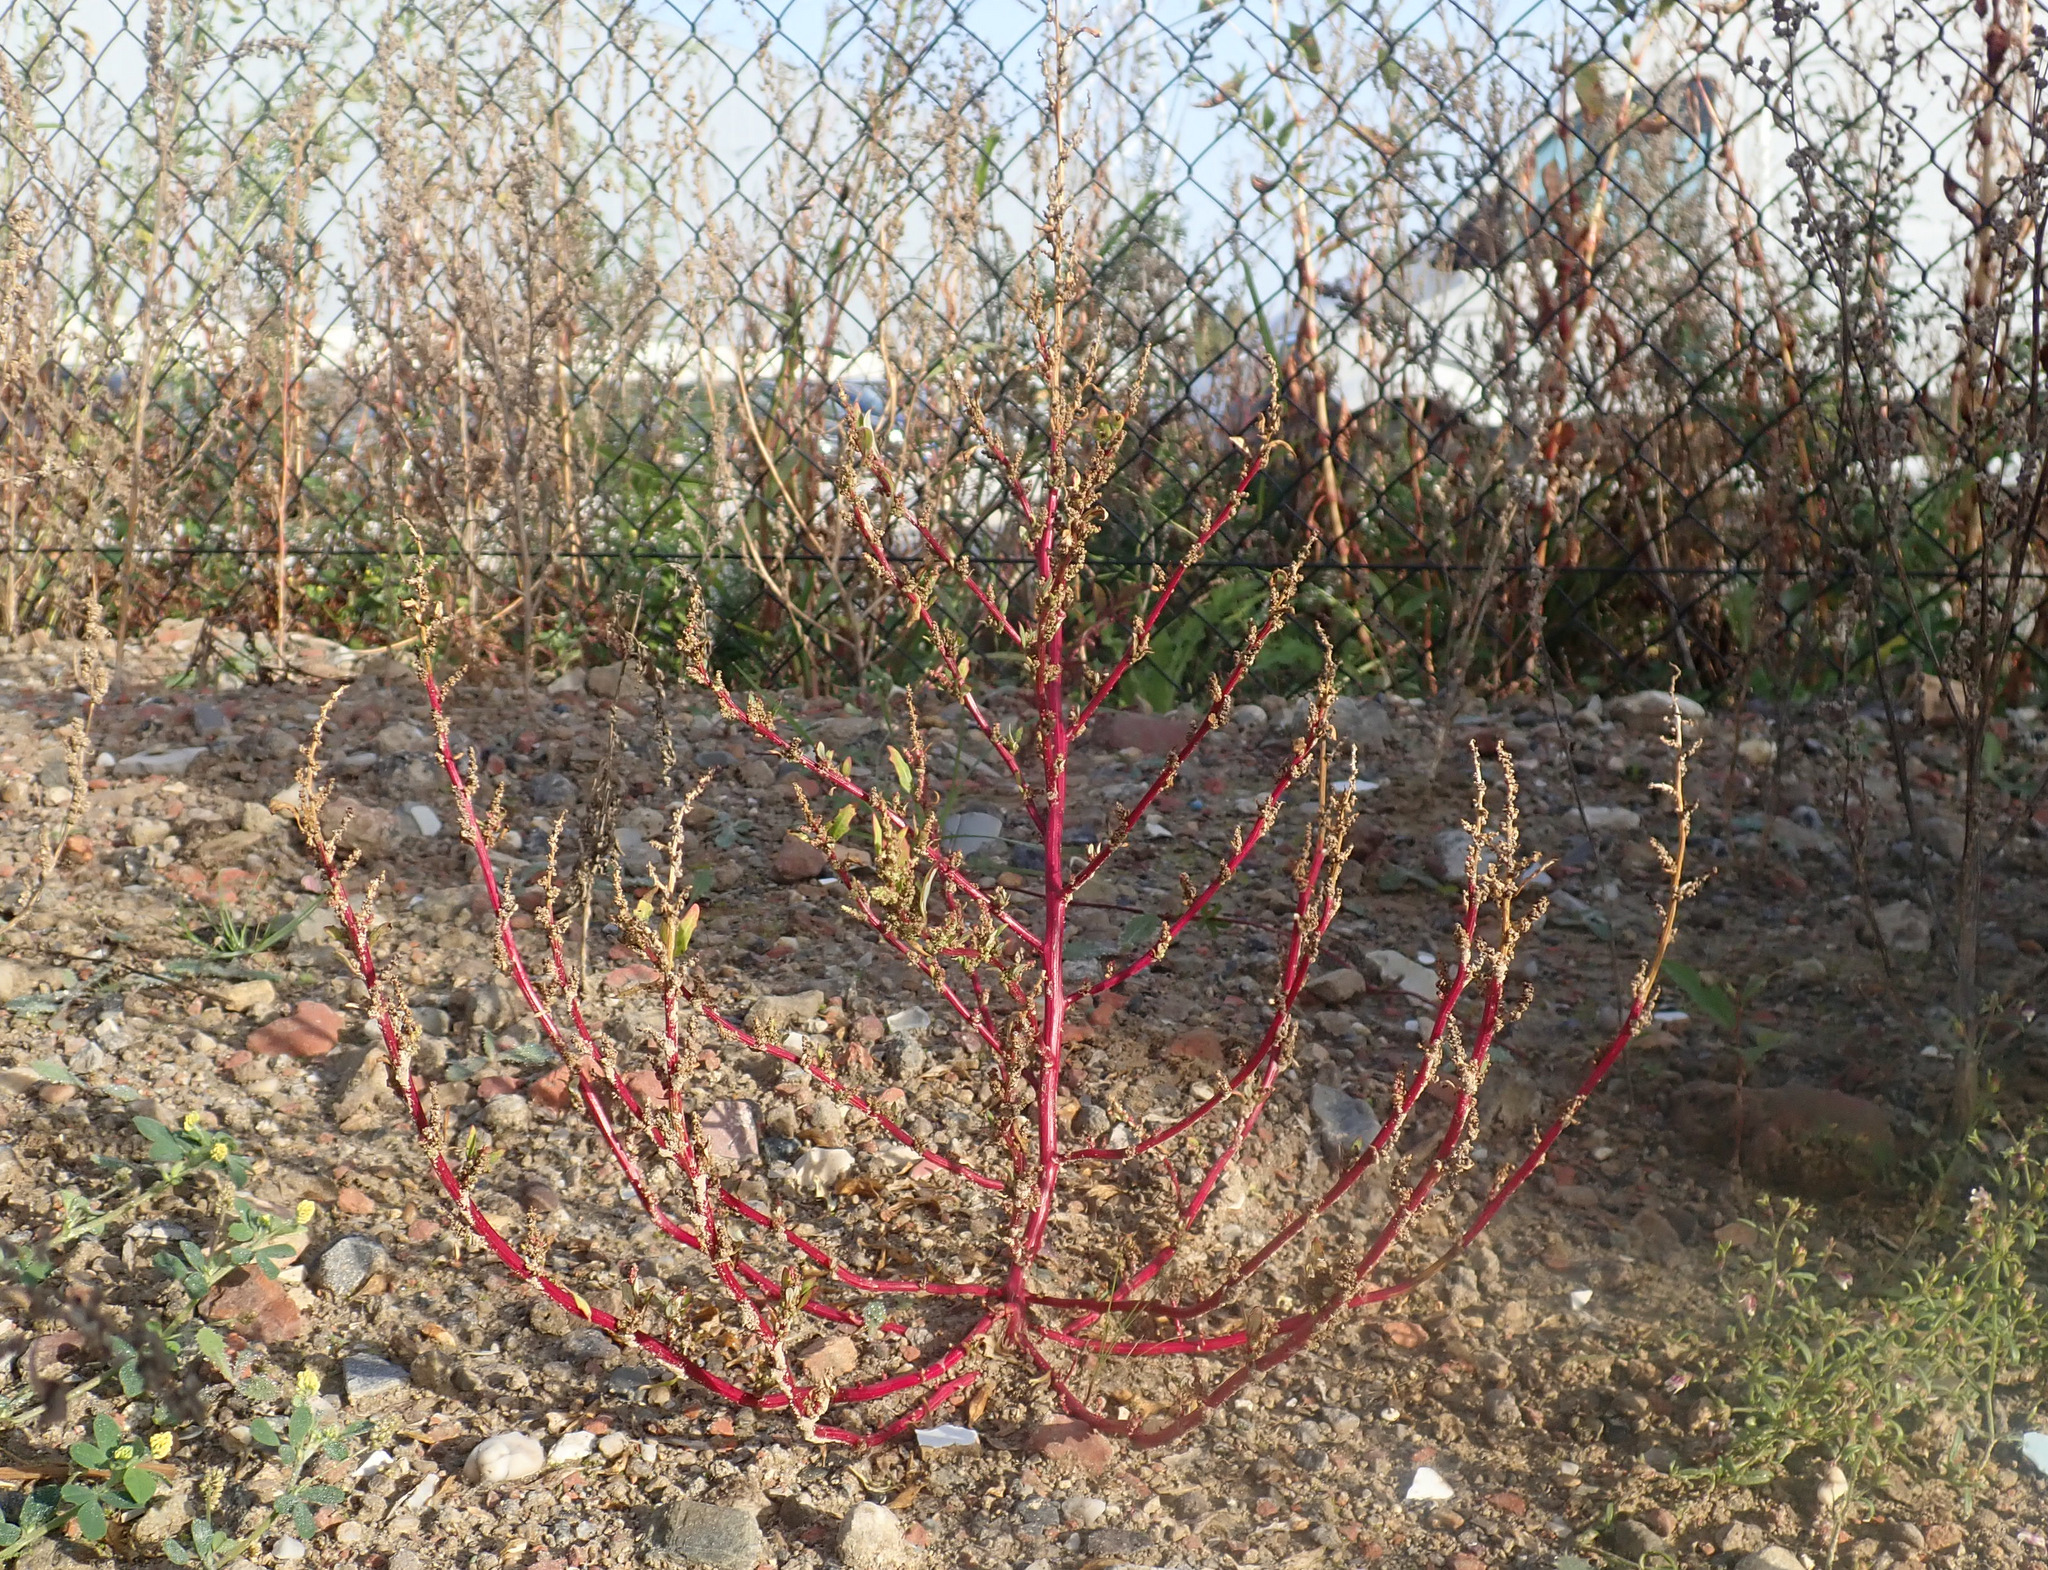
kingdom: Plantae
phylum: Tracheophyta
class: Magnoliopsida
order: Caryophyllales
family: Amaranthaceae
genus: Oxybasis
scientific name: Oxybasis glauca
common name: Glaucous goosefoot
